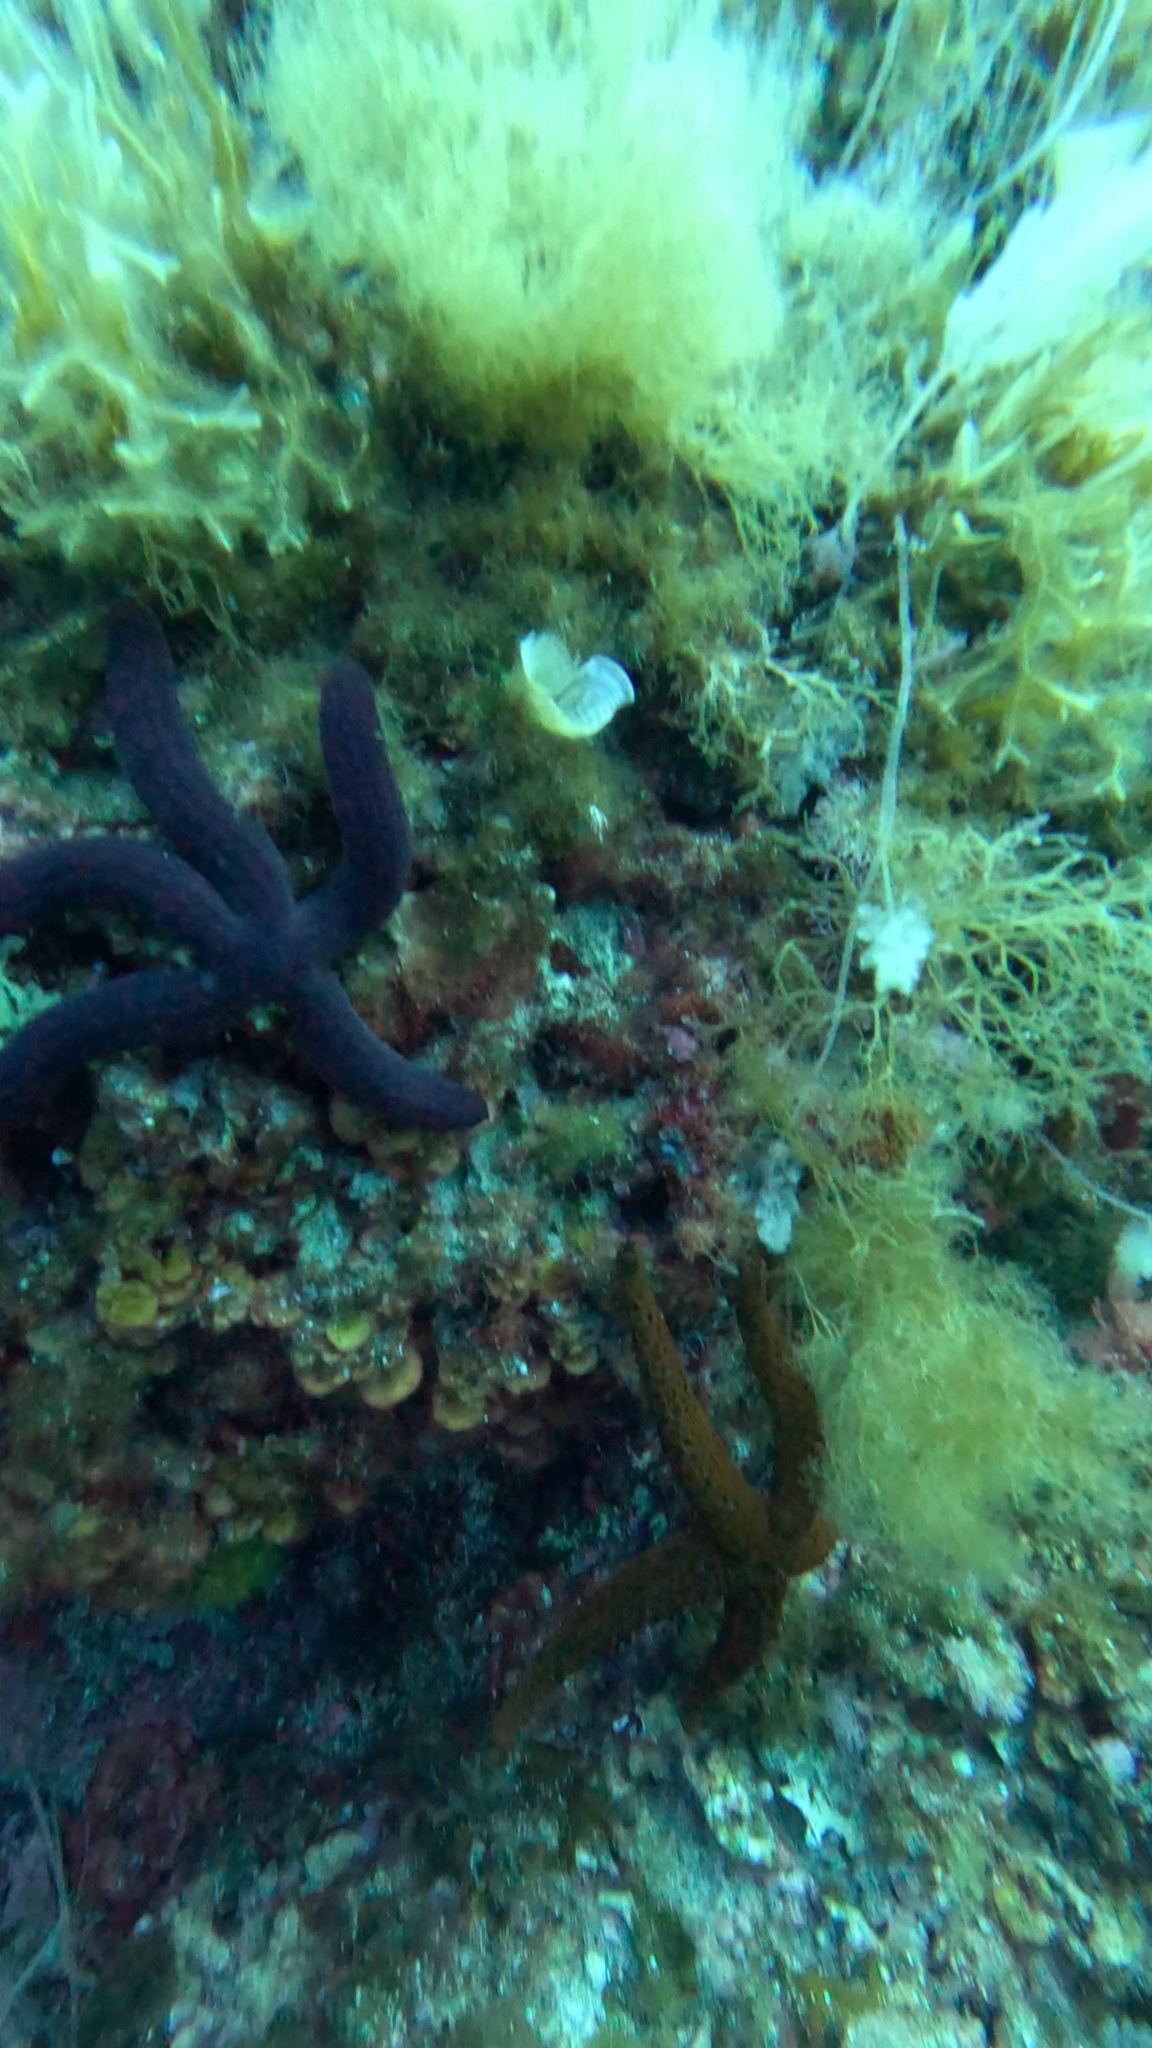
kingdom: Animalia
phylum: Echinodermata
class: Asteroidea
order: Valvatida
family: Ophidiasteridae
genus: Ophidiaster
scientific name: Ophidiaster ophidianus
